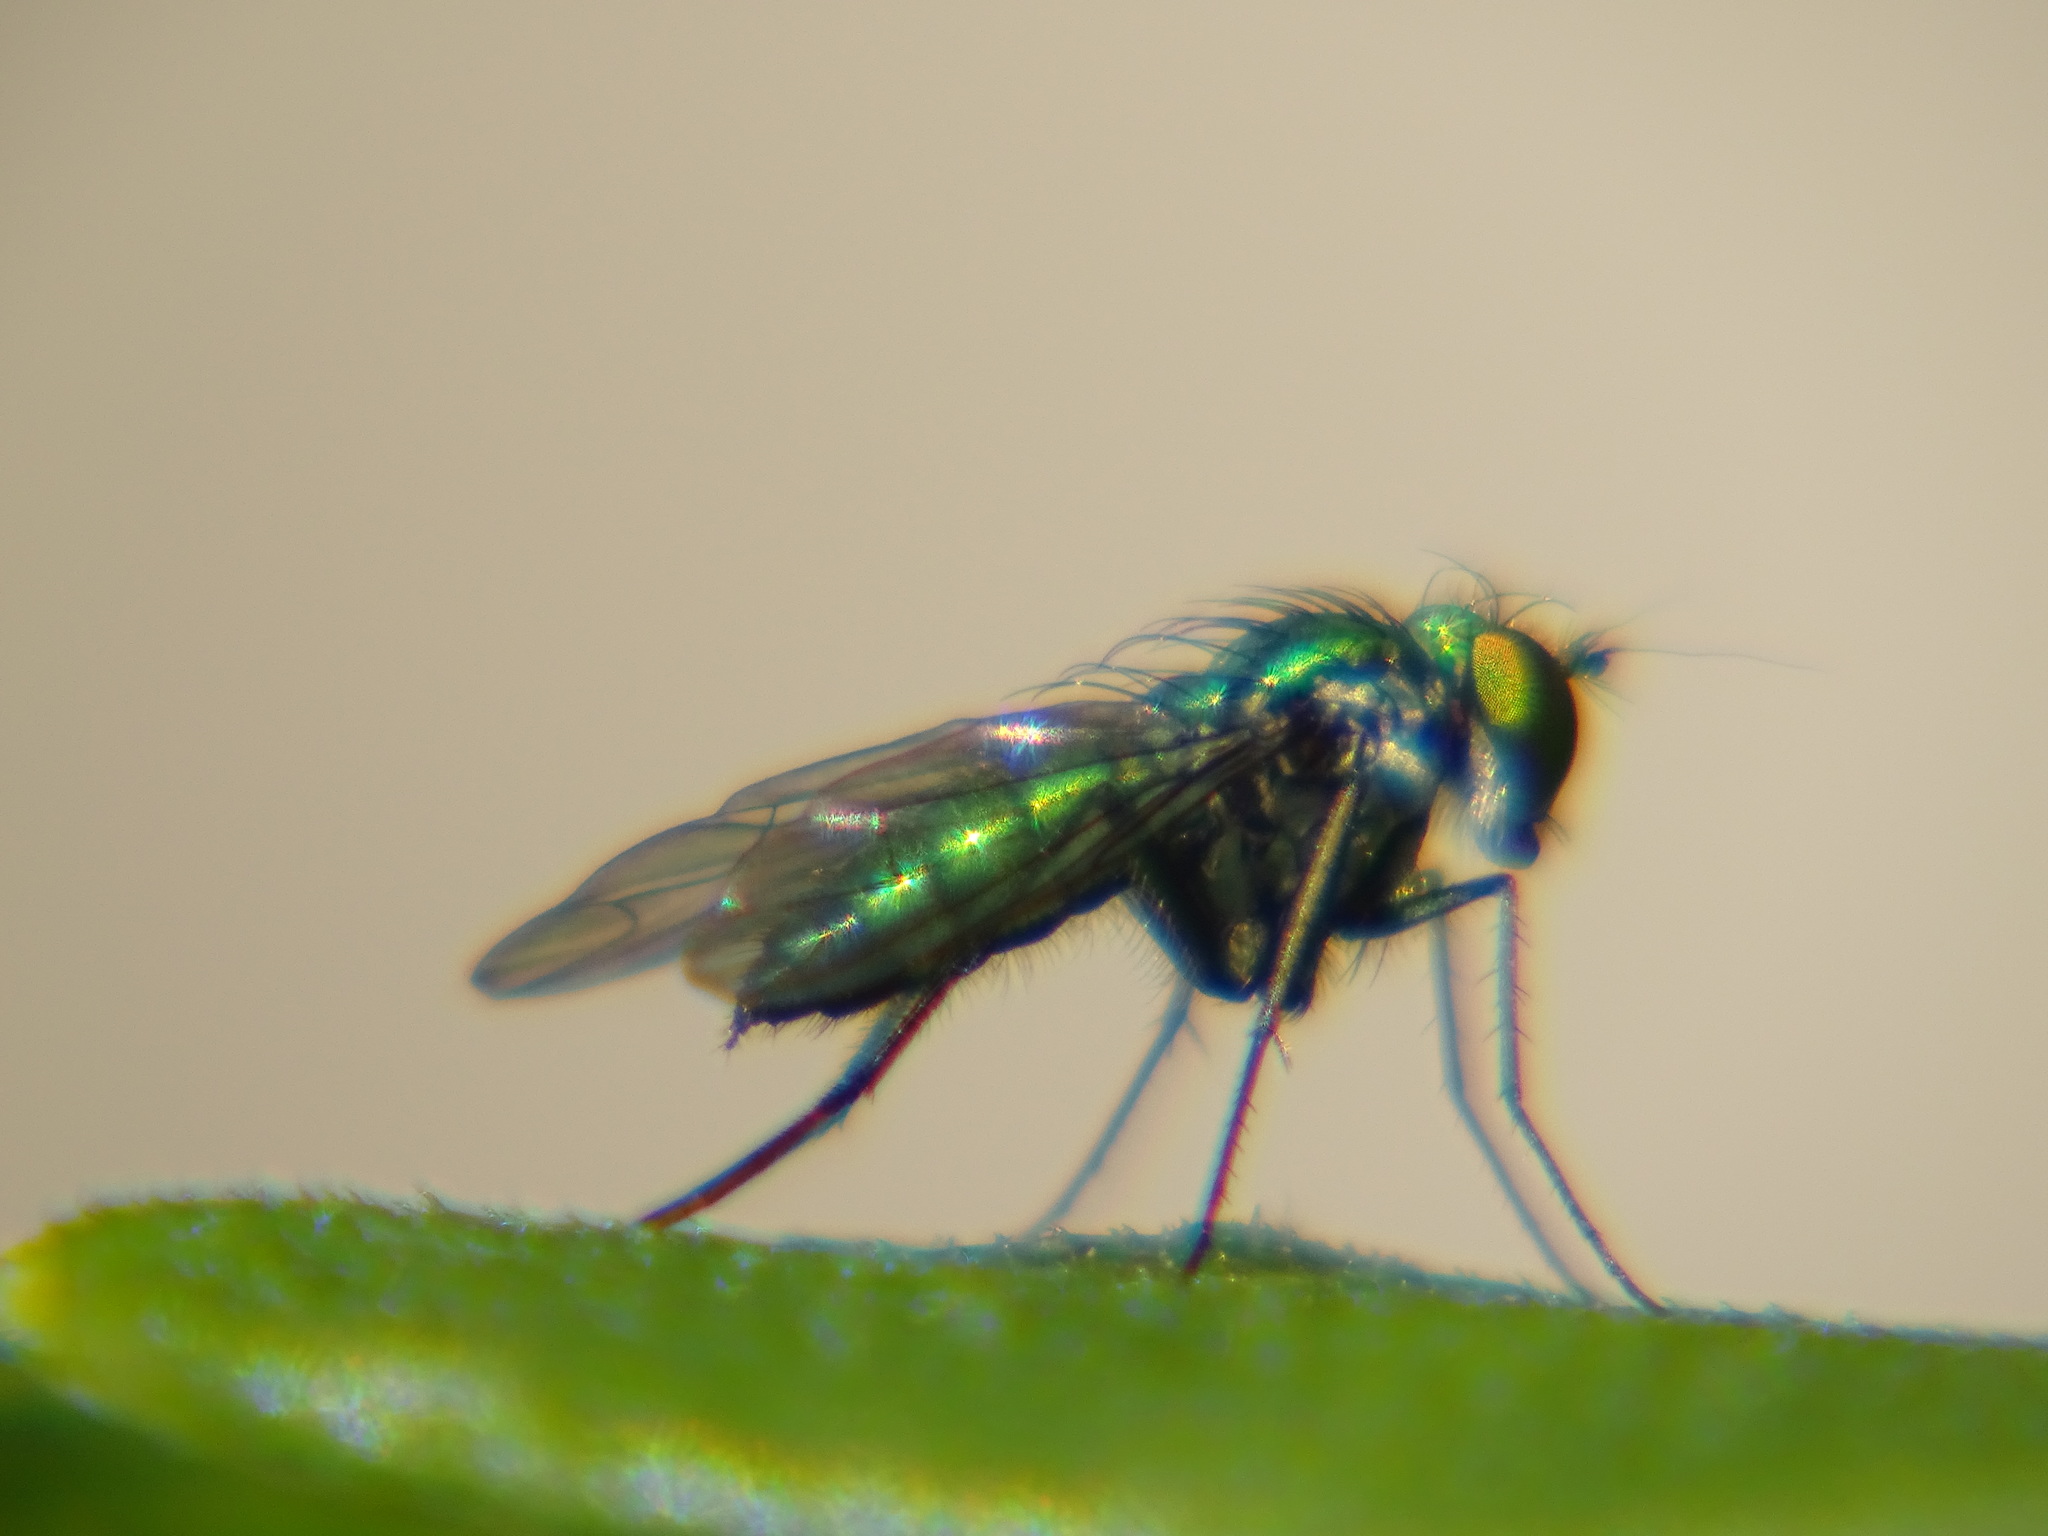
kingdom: Animalia
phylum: Arthropoda
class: Insecta
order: Diptera
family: Dolichopodidae
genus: Condylostylus
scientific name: Condylostylus longicornis
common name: Long-legged fly
